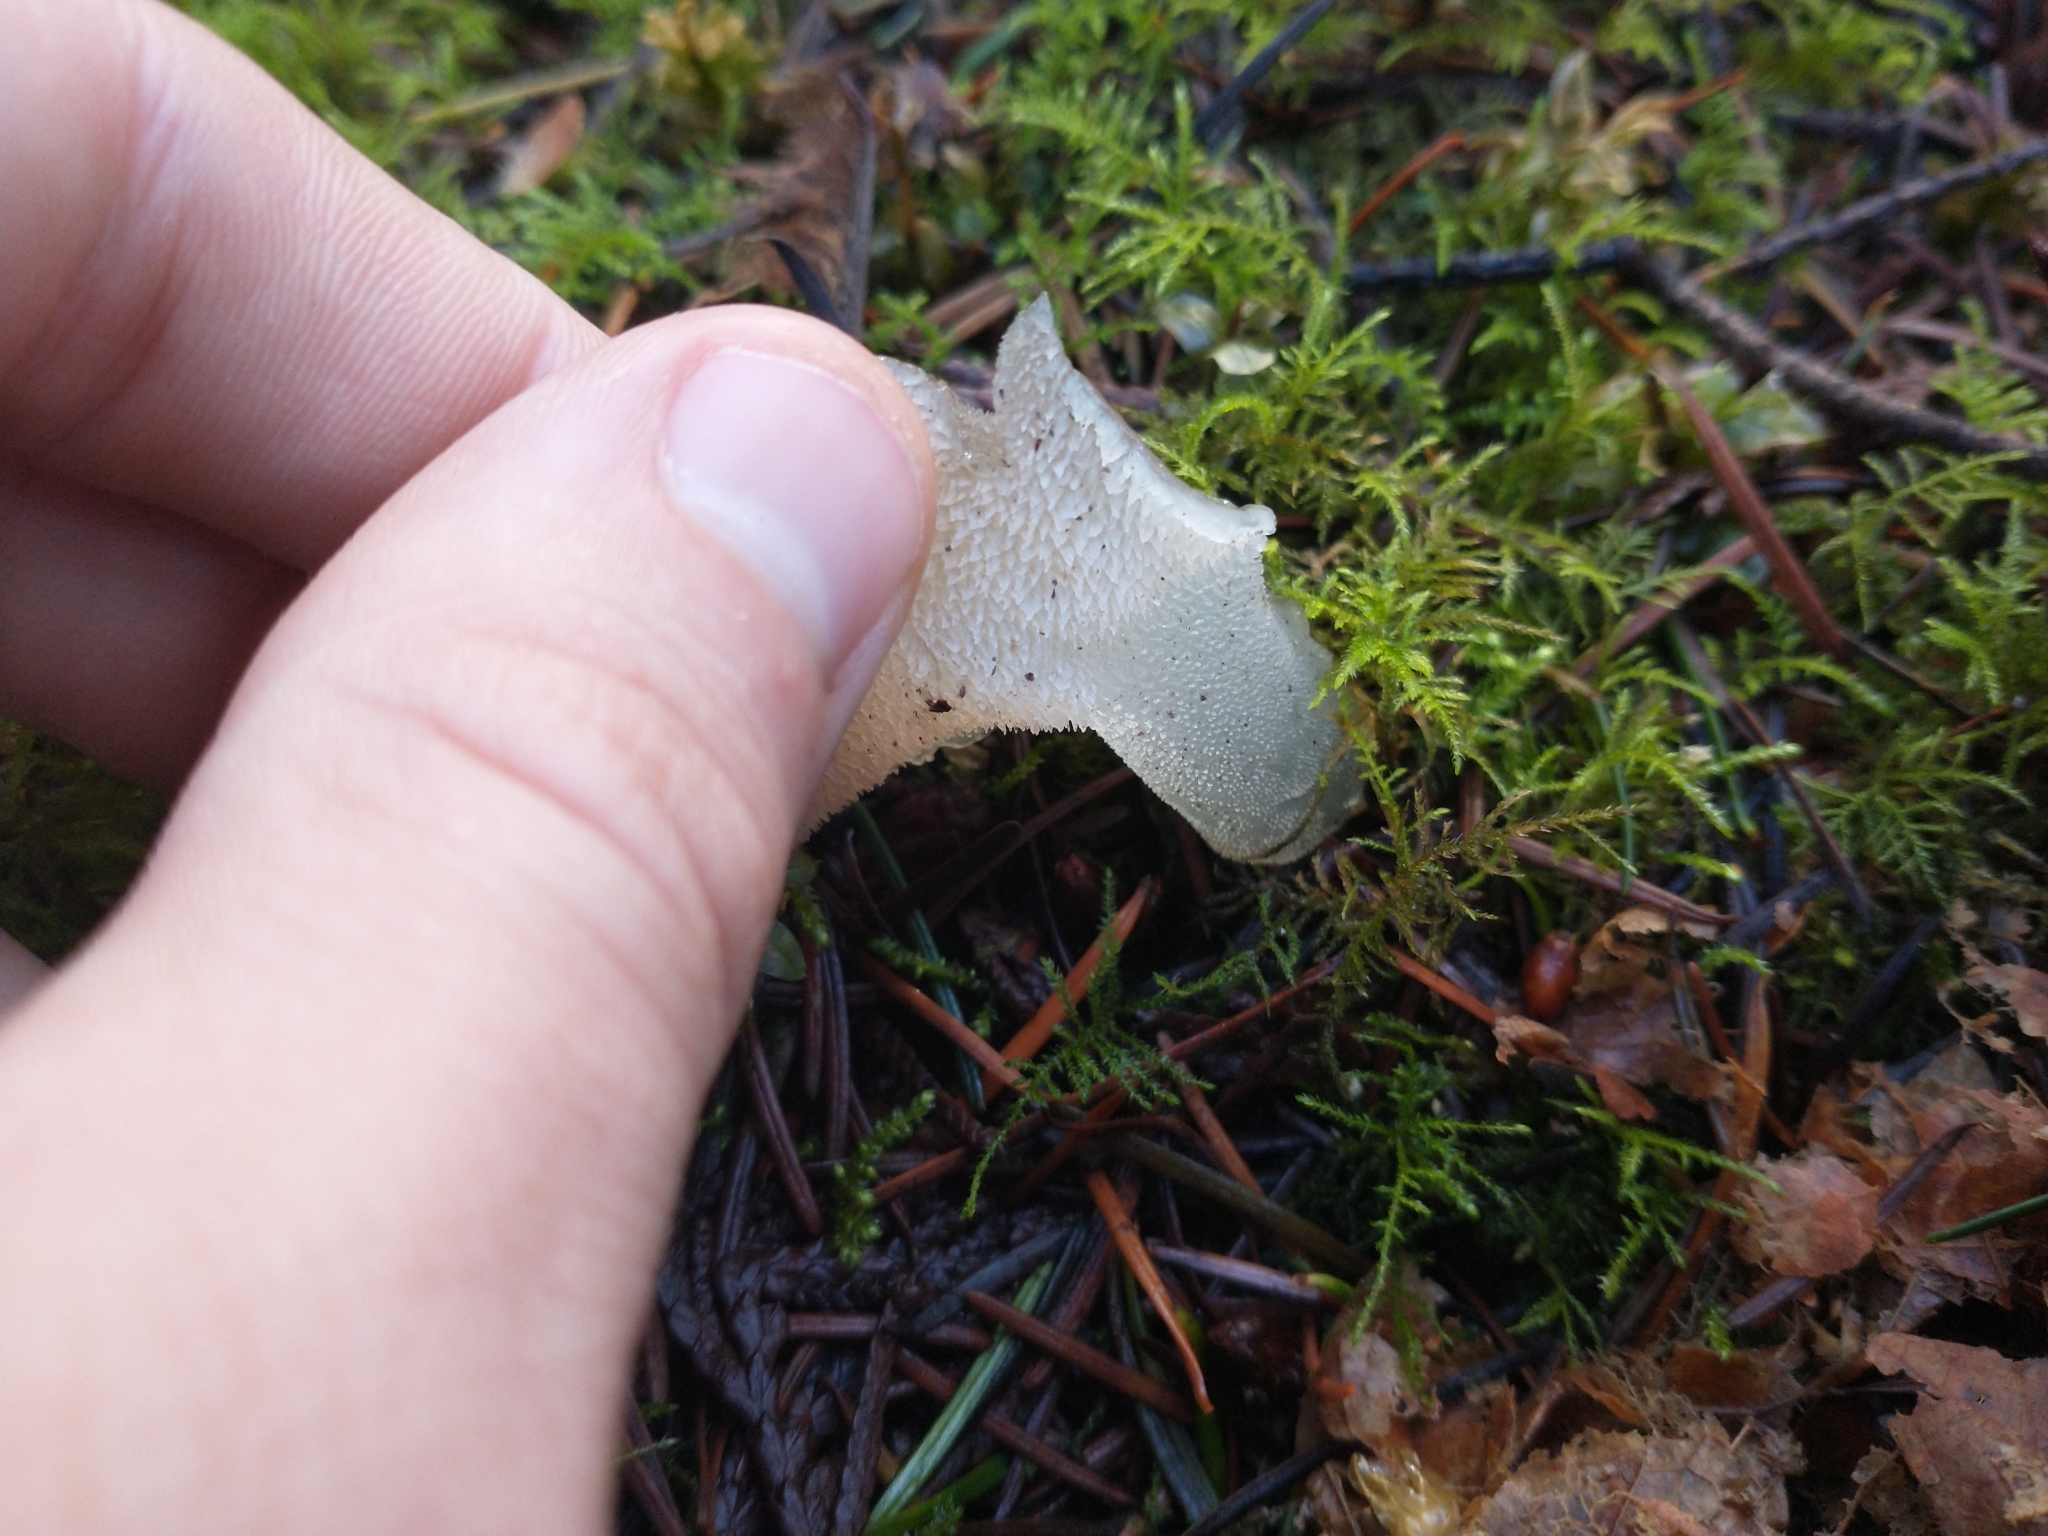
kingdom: Fungi
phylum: Basidiomycota
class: Agaricomycetes
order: Auriculariales
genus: Pseudohydnum
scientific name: Pseudohydnum gelatinosum
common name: Jelly tongue
